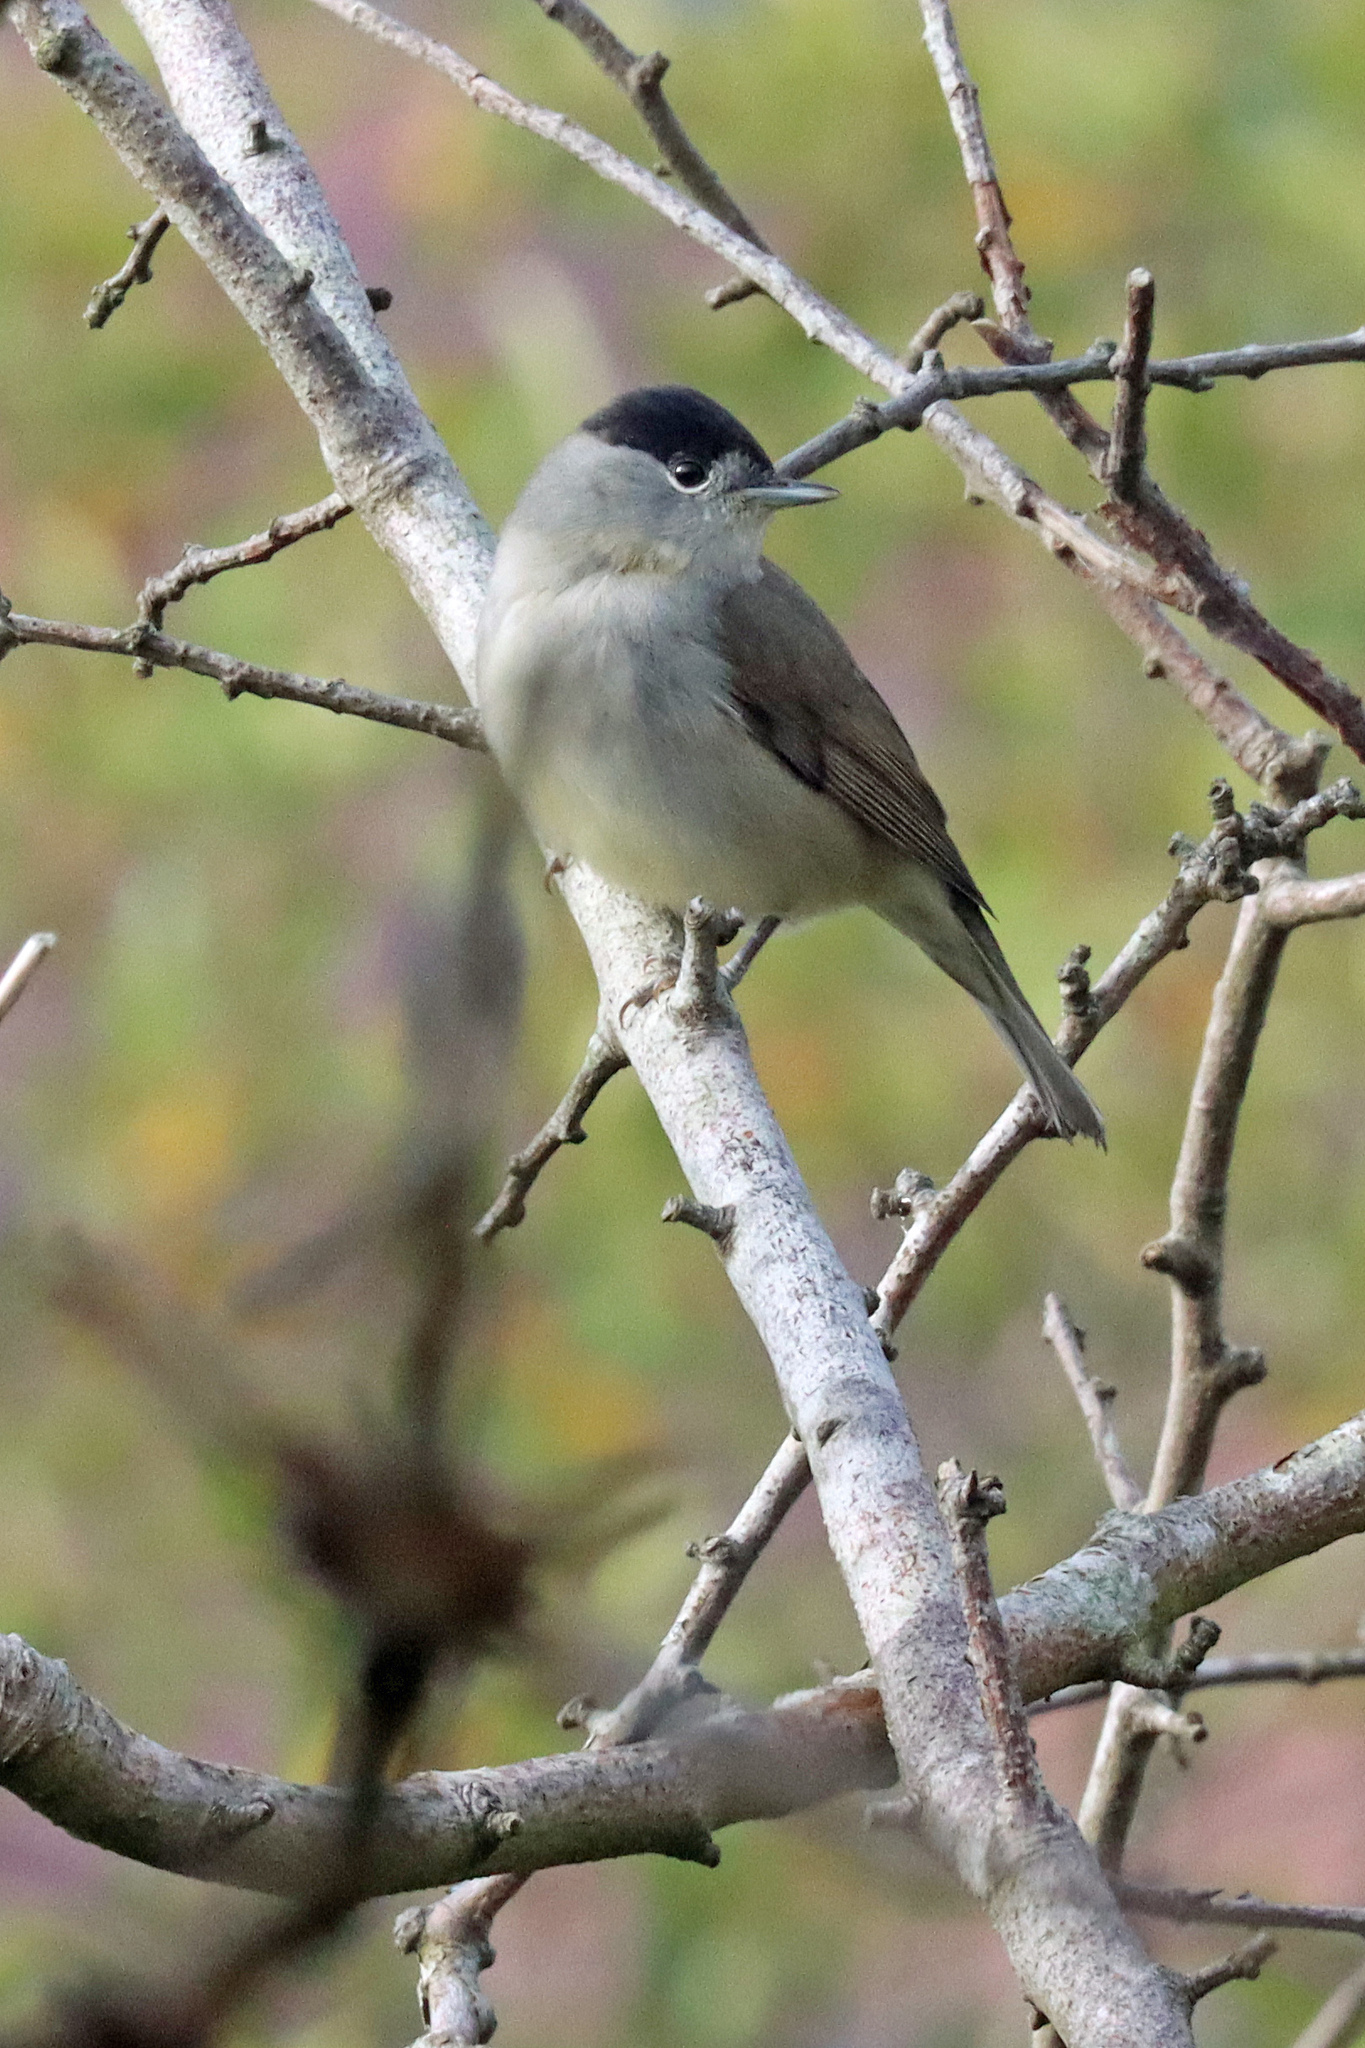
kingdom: Animalia
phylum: Chordata
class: Aves
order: Passeriformes
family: Sylviidae
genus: Sylvia
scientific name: Sylvia atricapilla
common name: Eurasian blackcap
